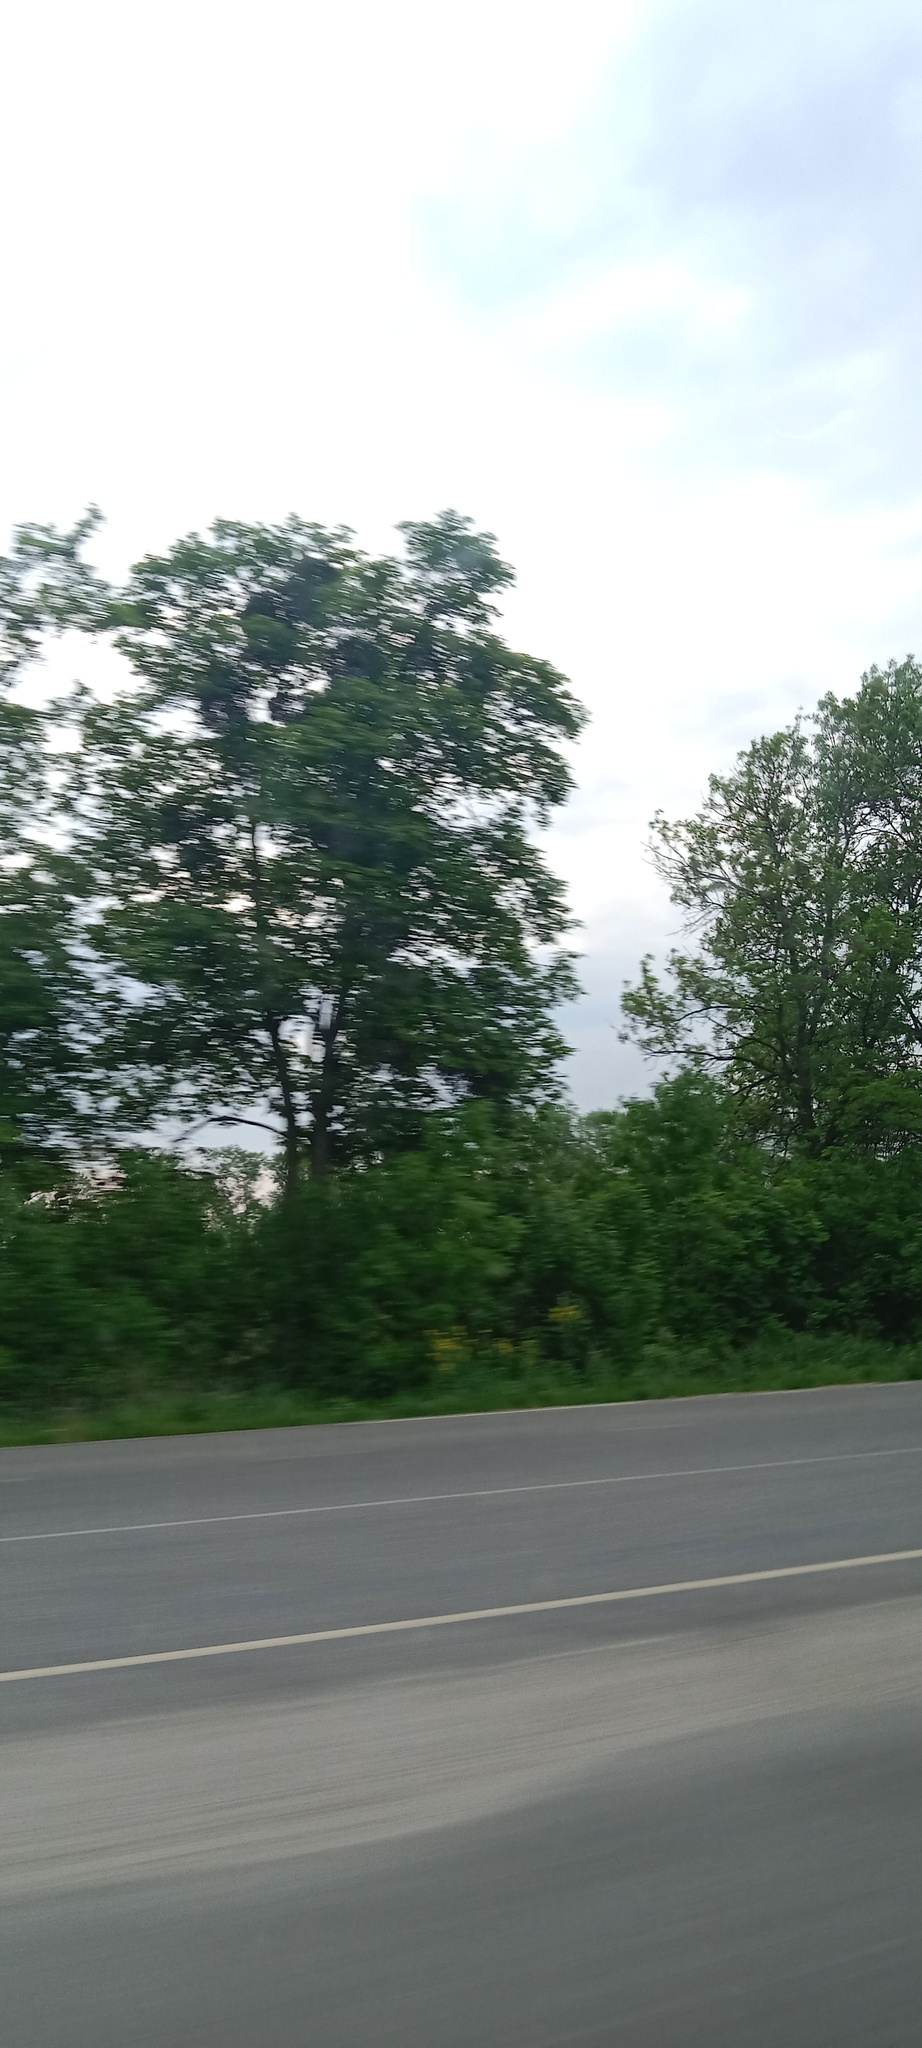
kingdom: Plantae
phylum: Tracheophyta
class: Magnoliopsida
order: Santalales
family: Viscaceae
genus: Viscum
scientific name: Viscum album
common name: Mistletoe
